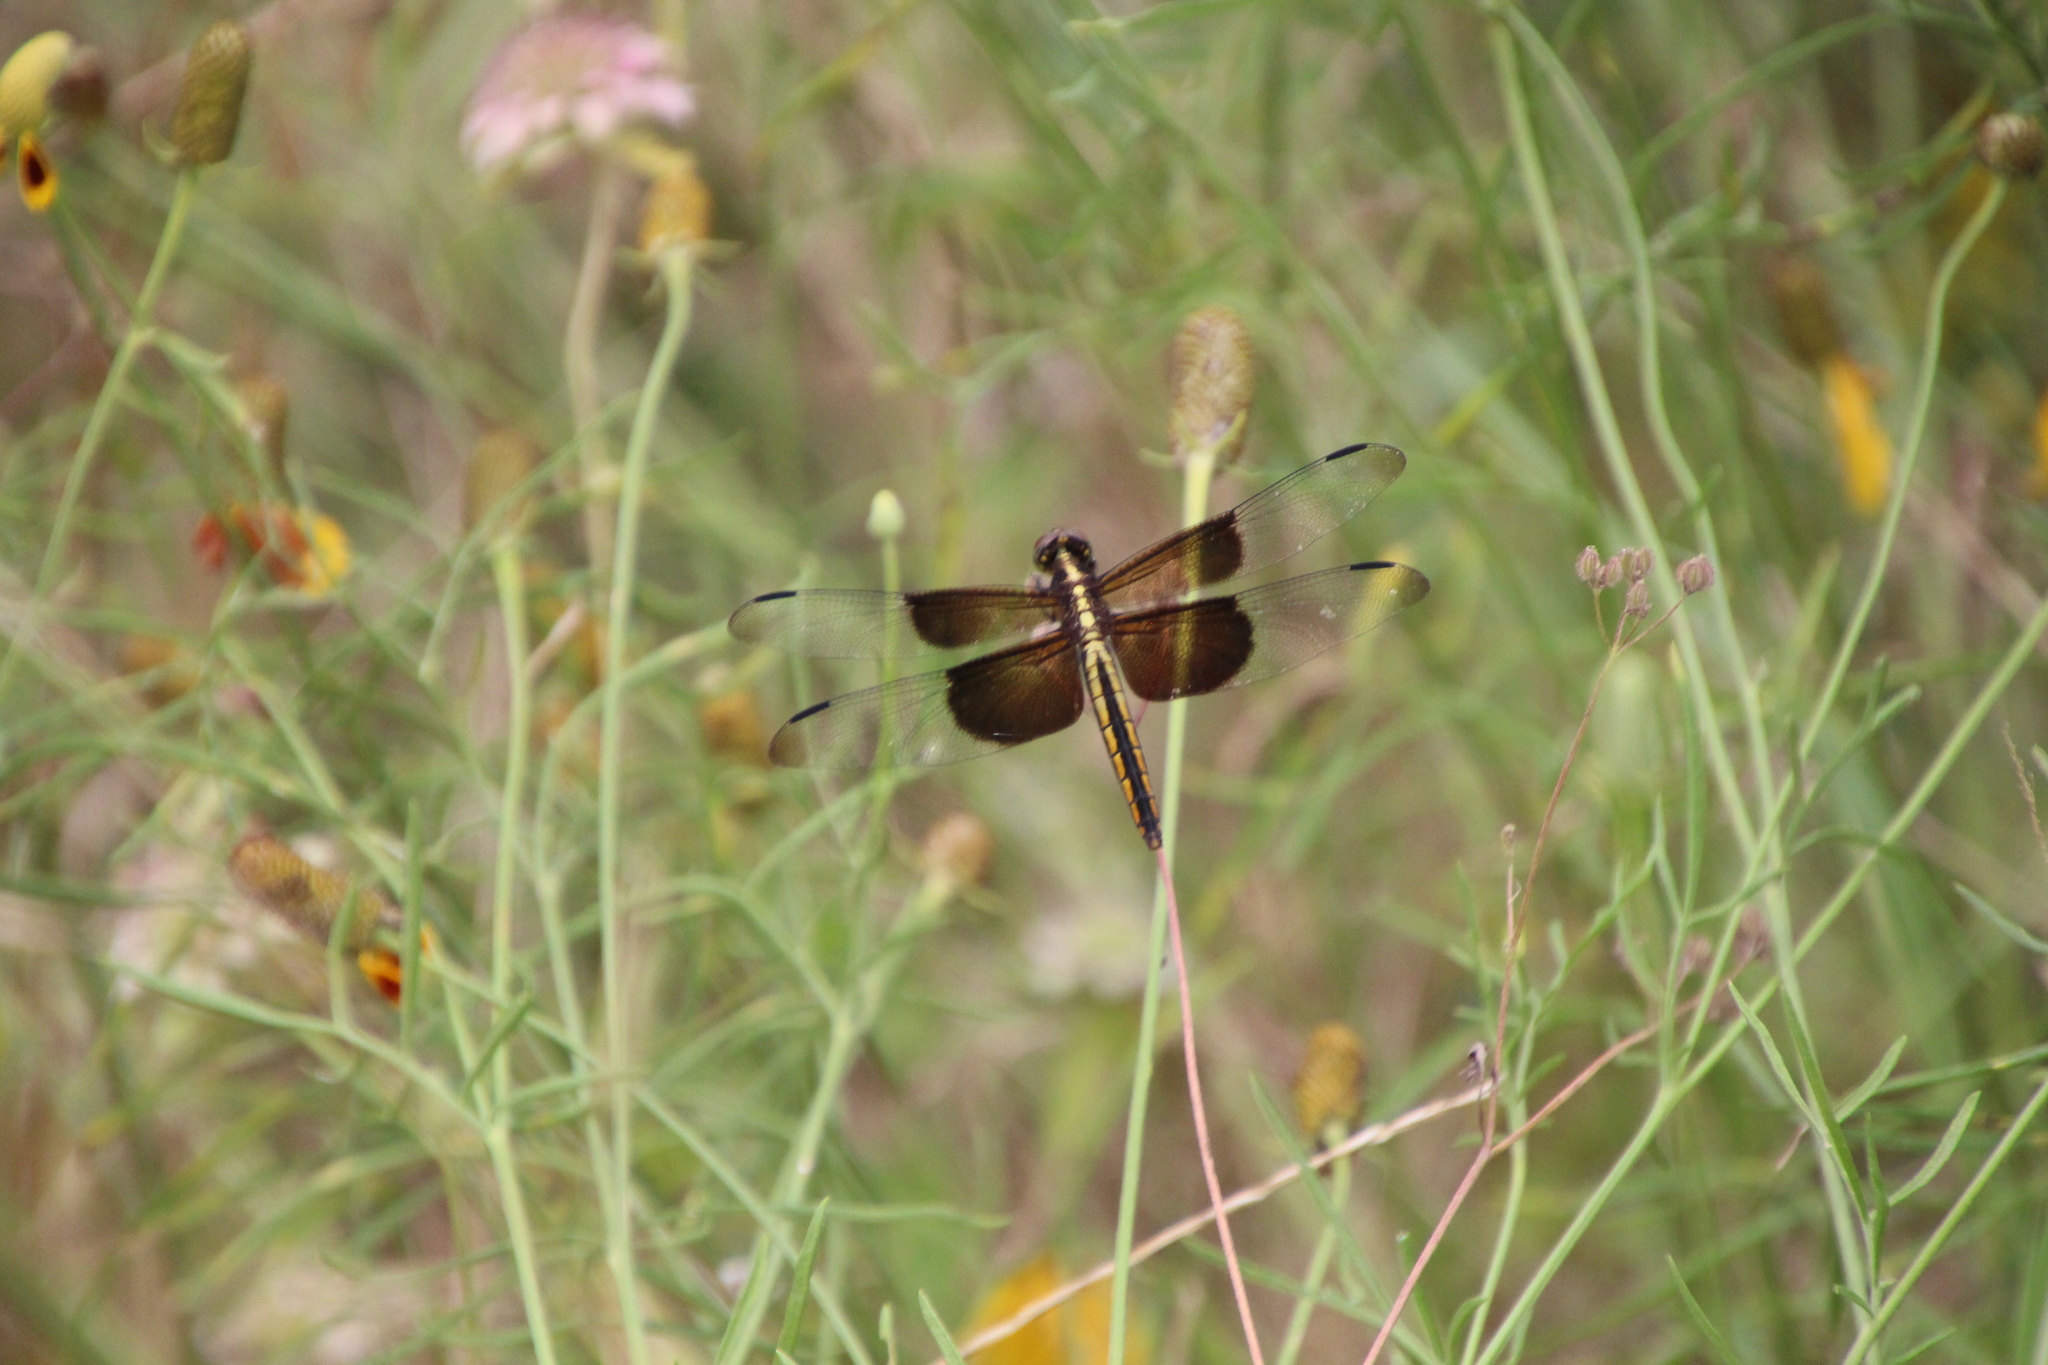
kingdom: Animalia
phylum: Arthropoda
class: Insecta
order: Odonata
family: Libellulidae
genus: Libellula
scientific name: Libellula luctuosa
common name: Widow skimmer
